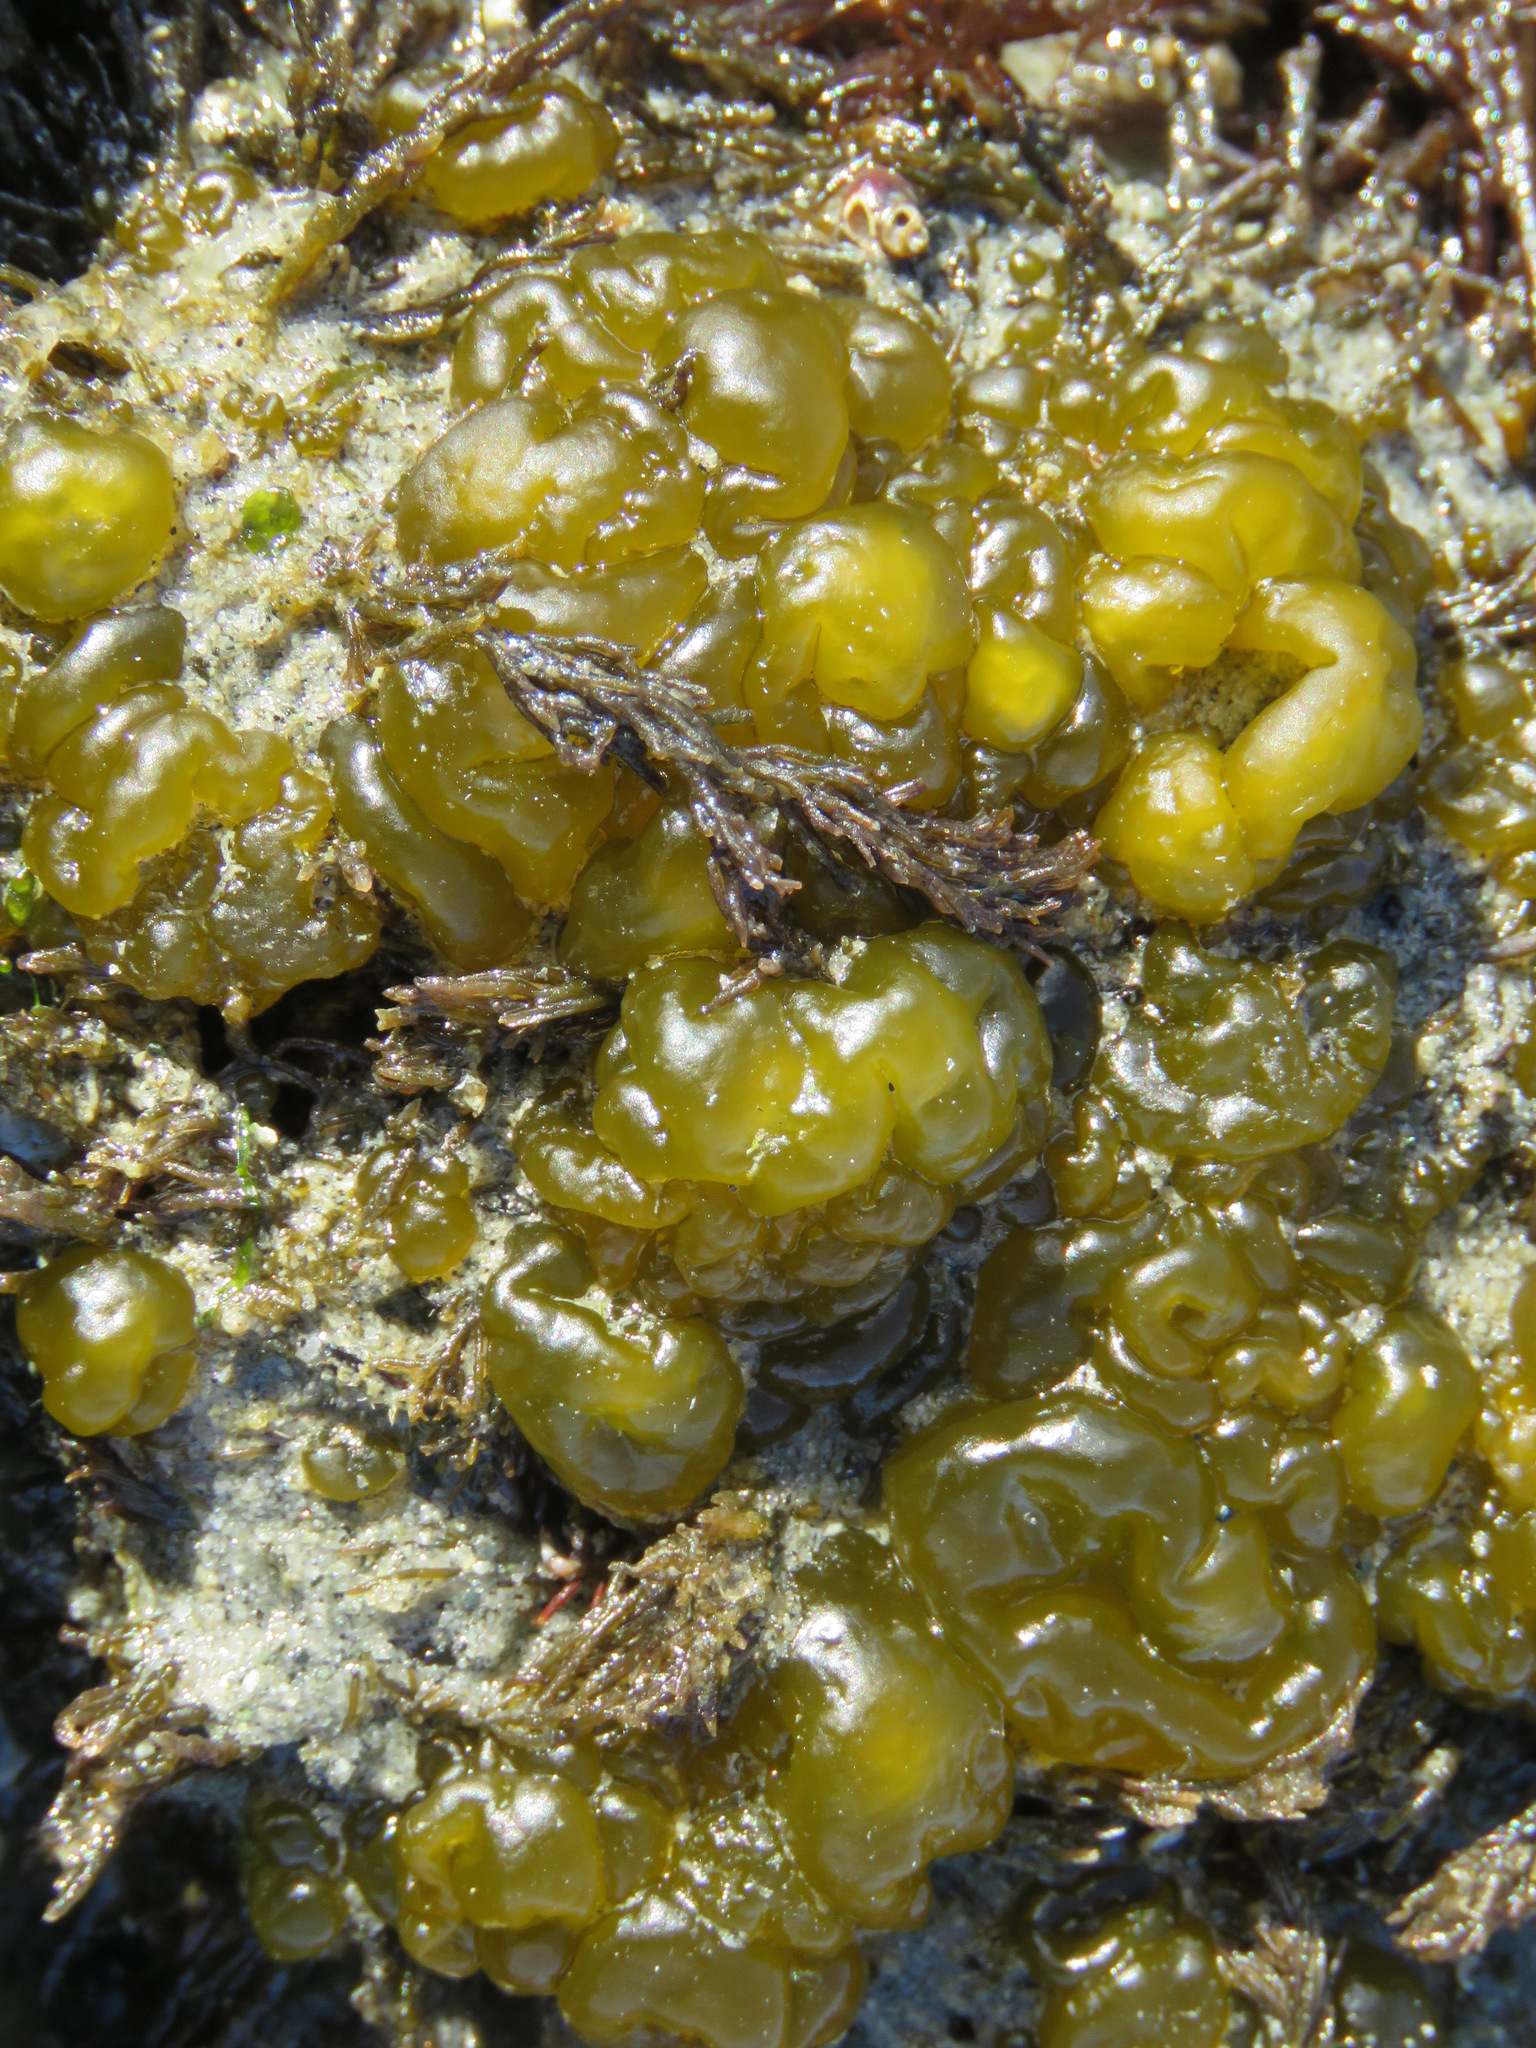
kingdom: Chromista
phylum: Ochrophyta
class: Phaeophyceae
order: Ectocarpales
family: Chordariaceae
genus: Leathesia
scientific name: Leathesia marina
